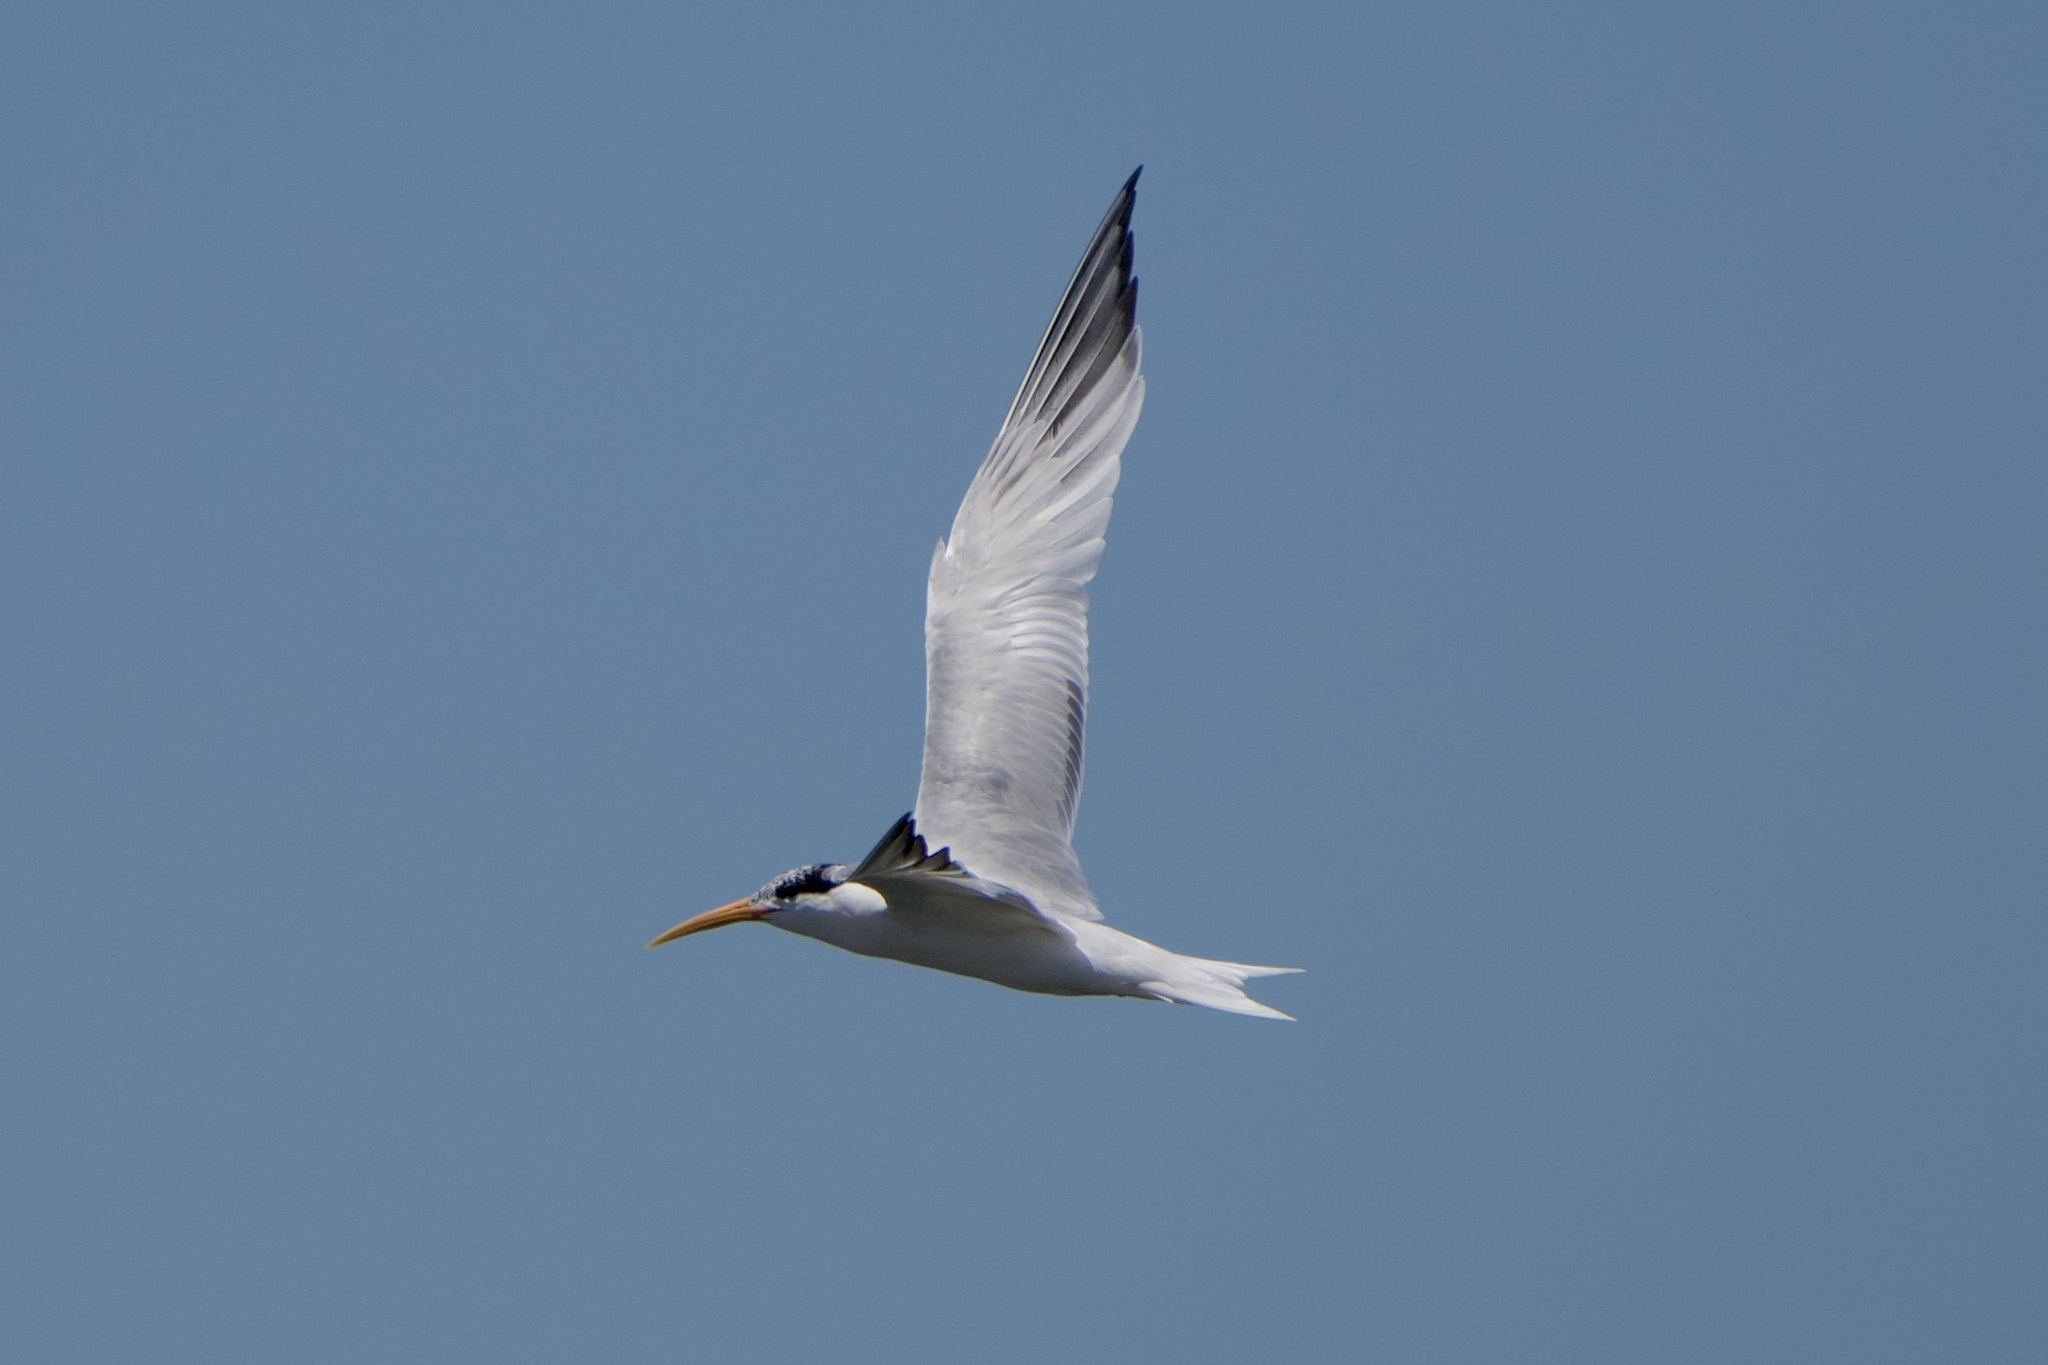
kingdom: Animalia
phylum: Chordata
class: Aves
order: Charadriiformes
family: Laridae
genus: Thalasseus
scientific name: Thalasseus elegans
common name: Elegant tern
